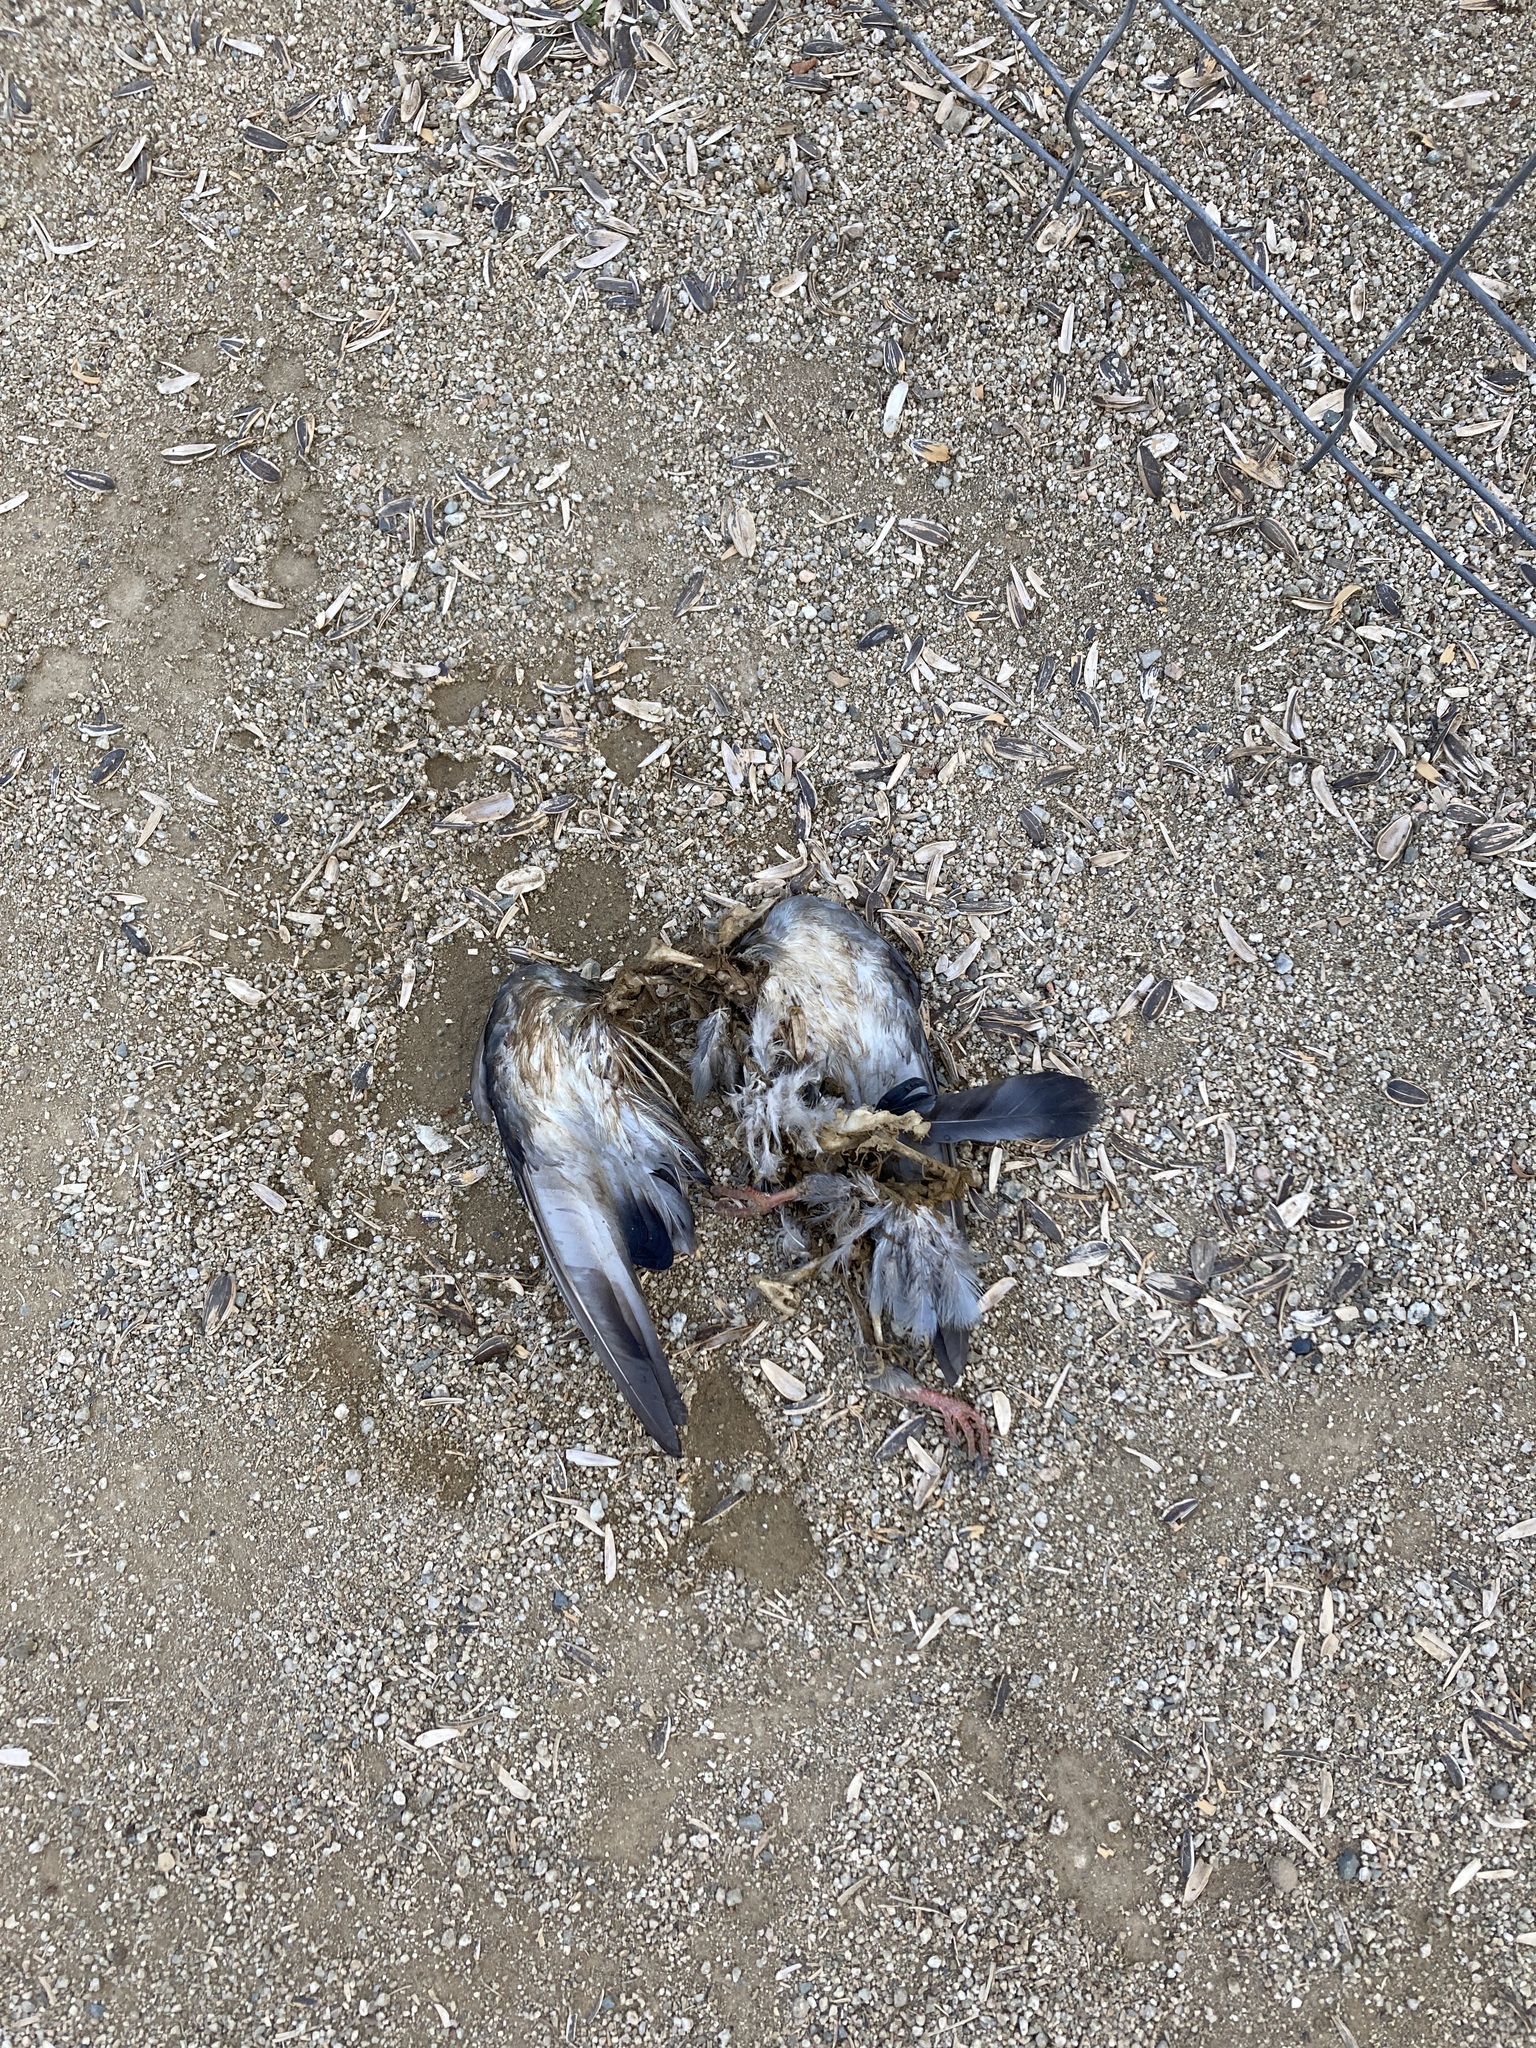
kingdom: Animalia
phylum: Chordata
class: Aves
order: Columbiformes
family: Columbidae
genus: Columba
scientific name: Columba livia
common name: Rock pigeon
